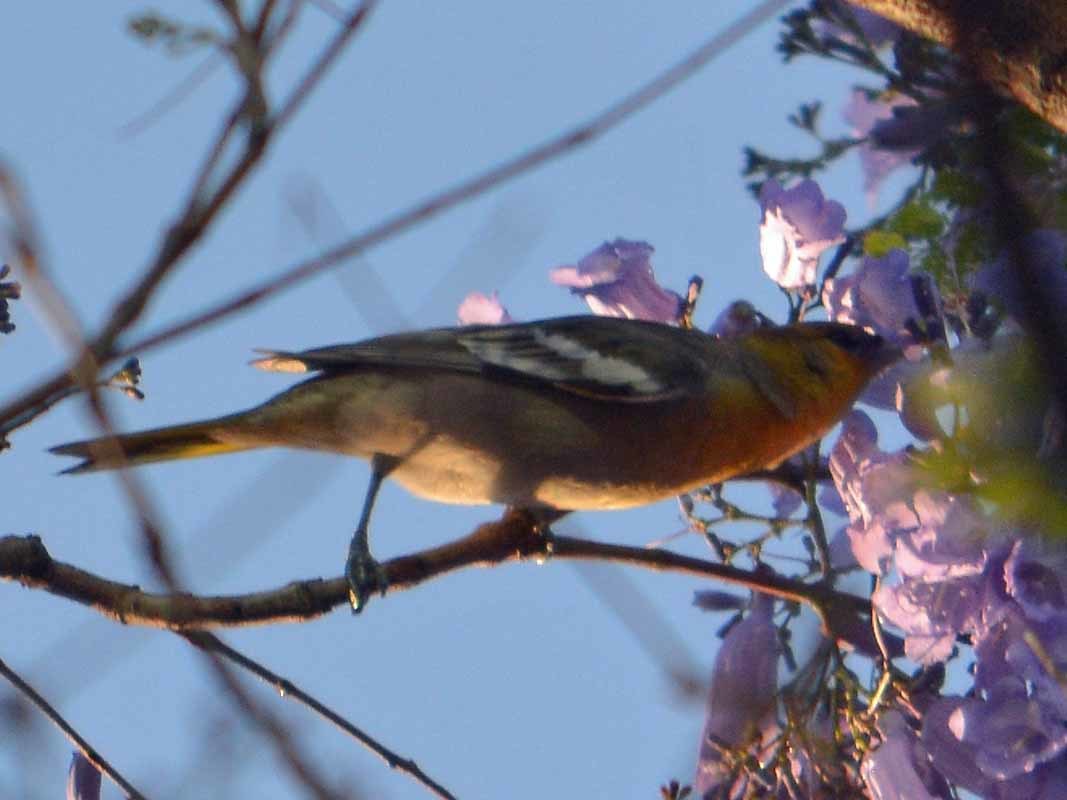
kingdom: Animalia
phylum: Chordata
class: Aves
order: Passeriformes
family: Icteridae
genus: Icterus
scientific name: Icterus bullockii
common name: Bullock's oriole
